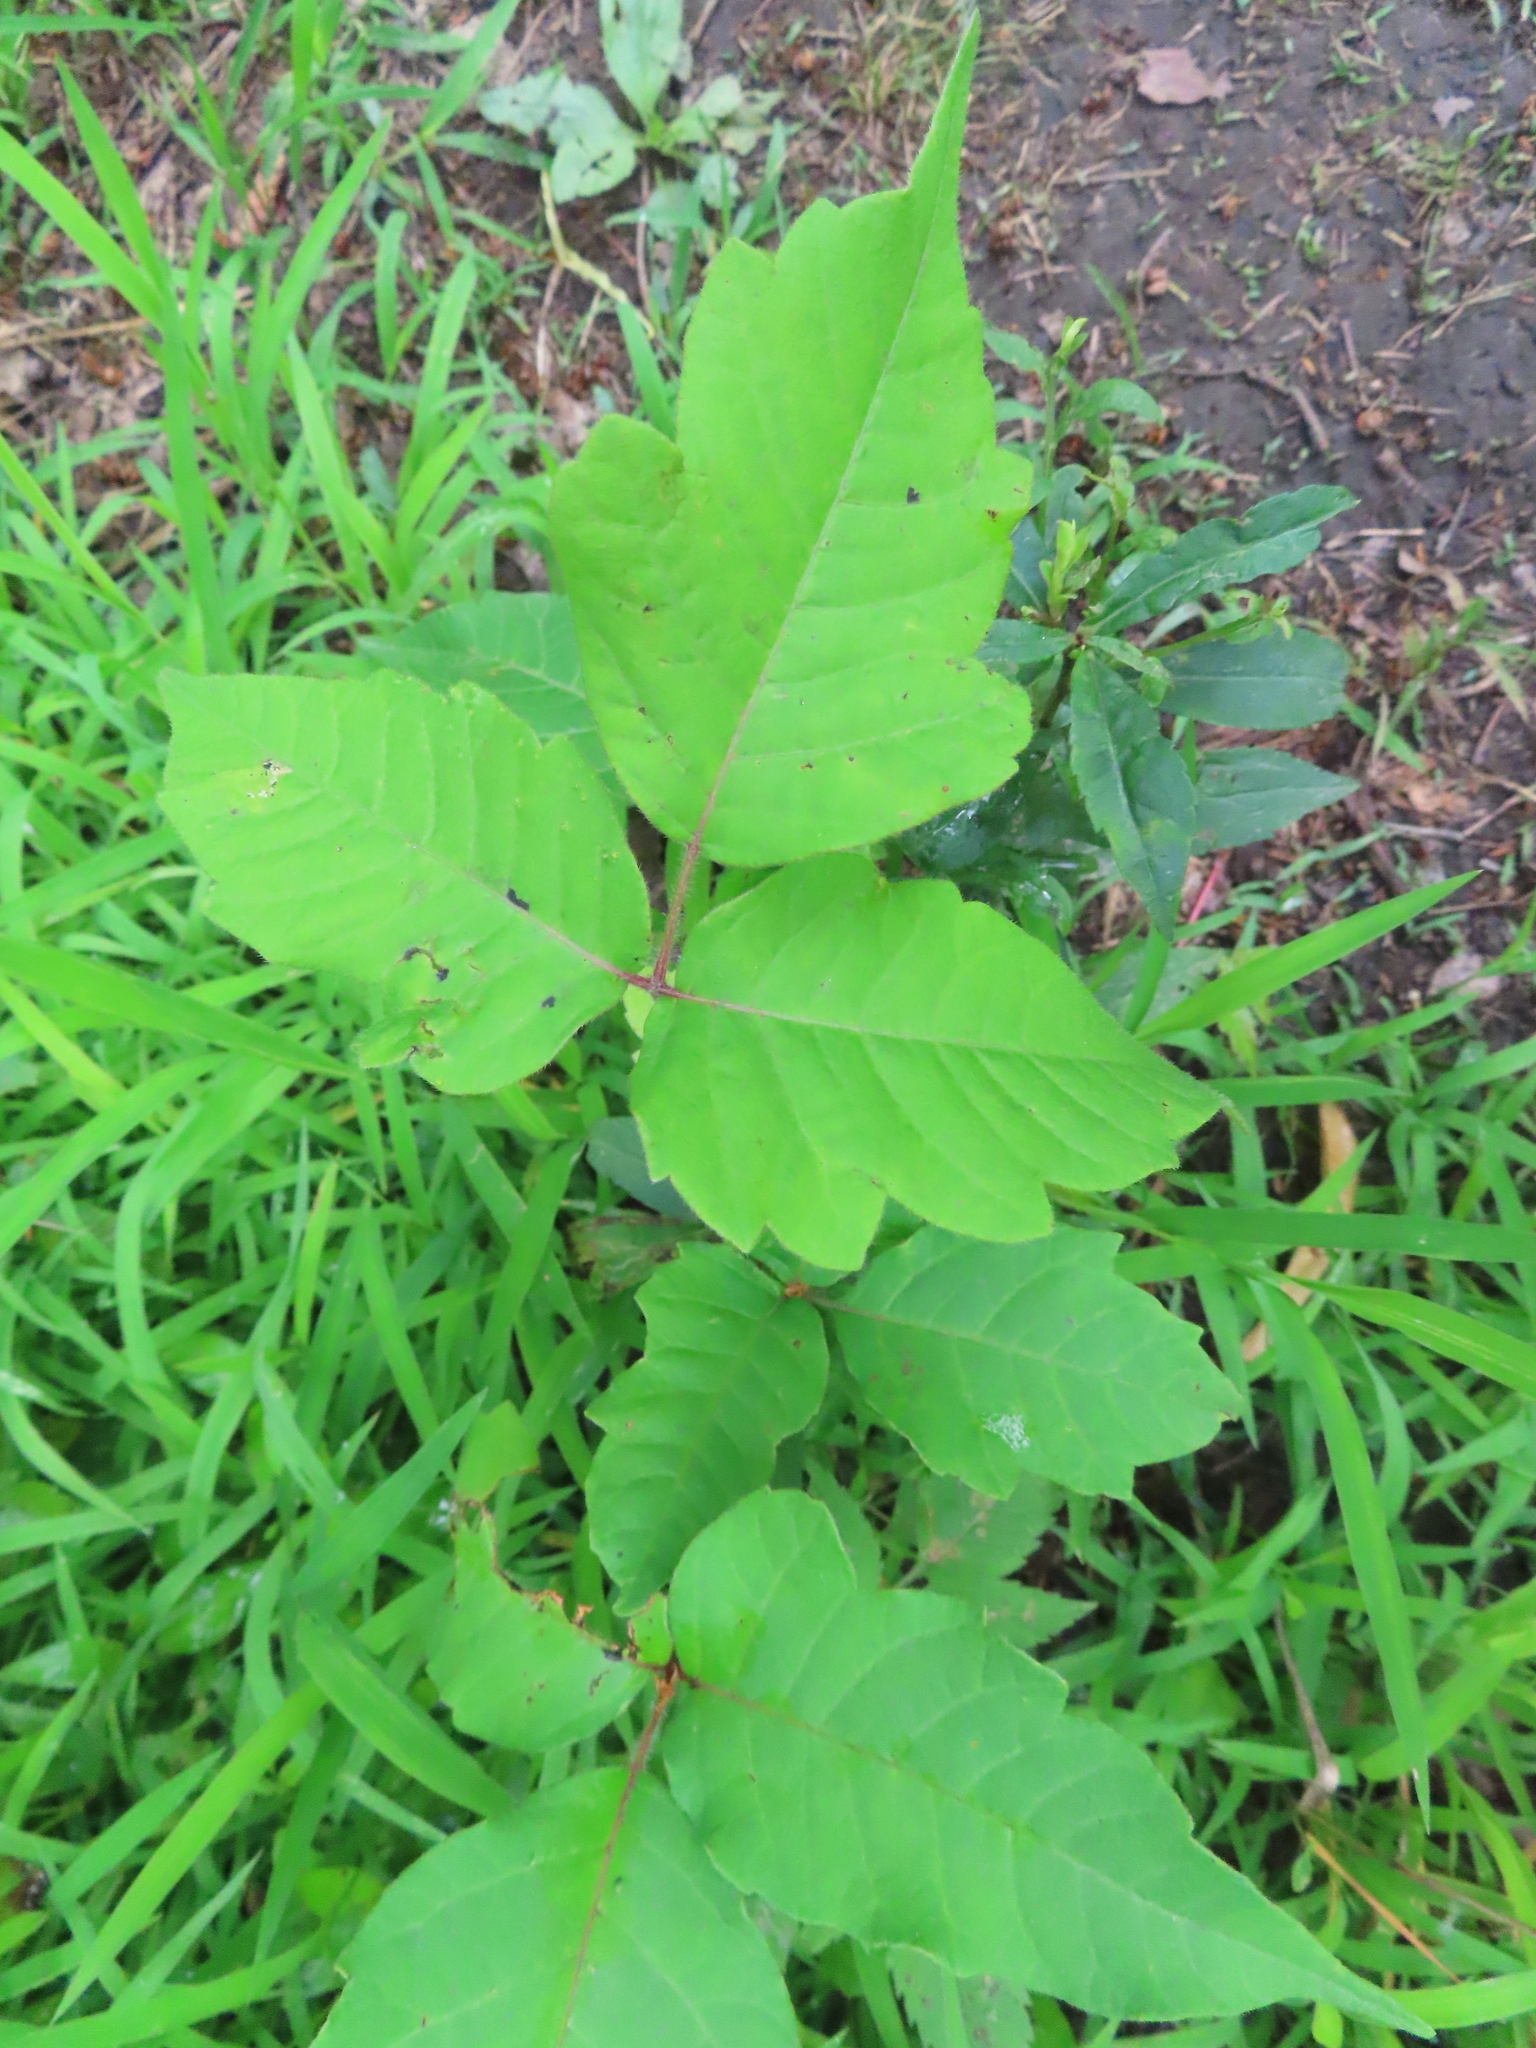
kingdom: Plantae
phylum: Tracheophyta
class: Magnoliopsida
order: Sapindales
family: Anacardiaceae
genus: Toxicodendron
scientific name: Toxicodendron radicans
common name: Poison ivy
